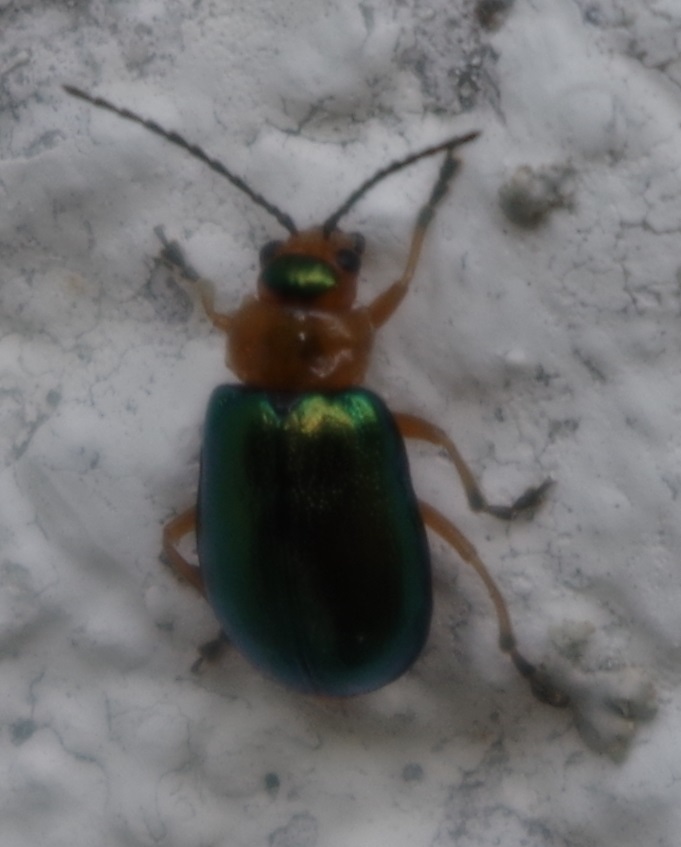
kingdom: Animalia
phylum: Arthropoda
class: Insecta
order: Coleoptera
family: Chrysomelidae
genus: Sermylassa
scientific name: Sermylassa halensis
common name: Leaf beetle
